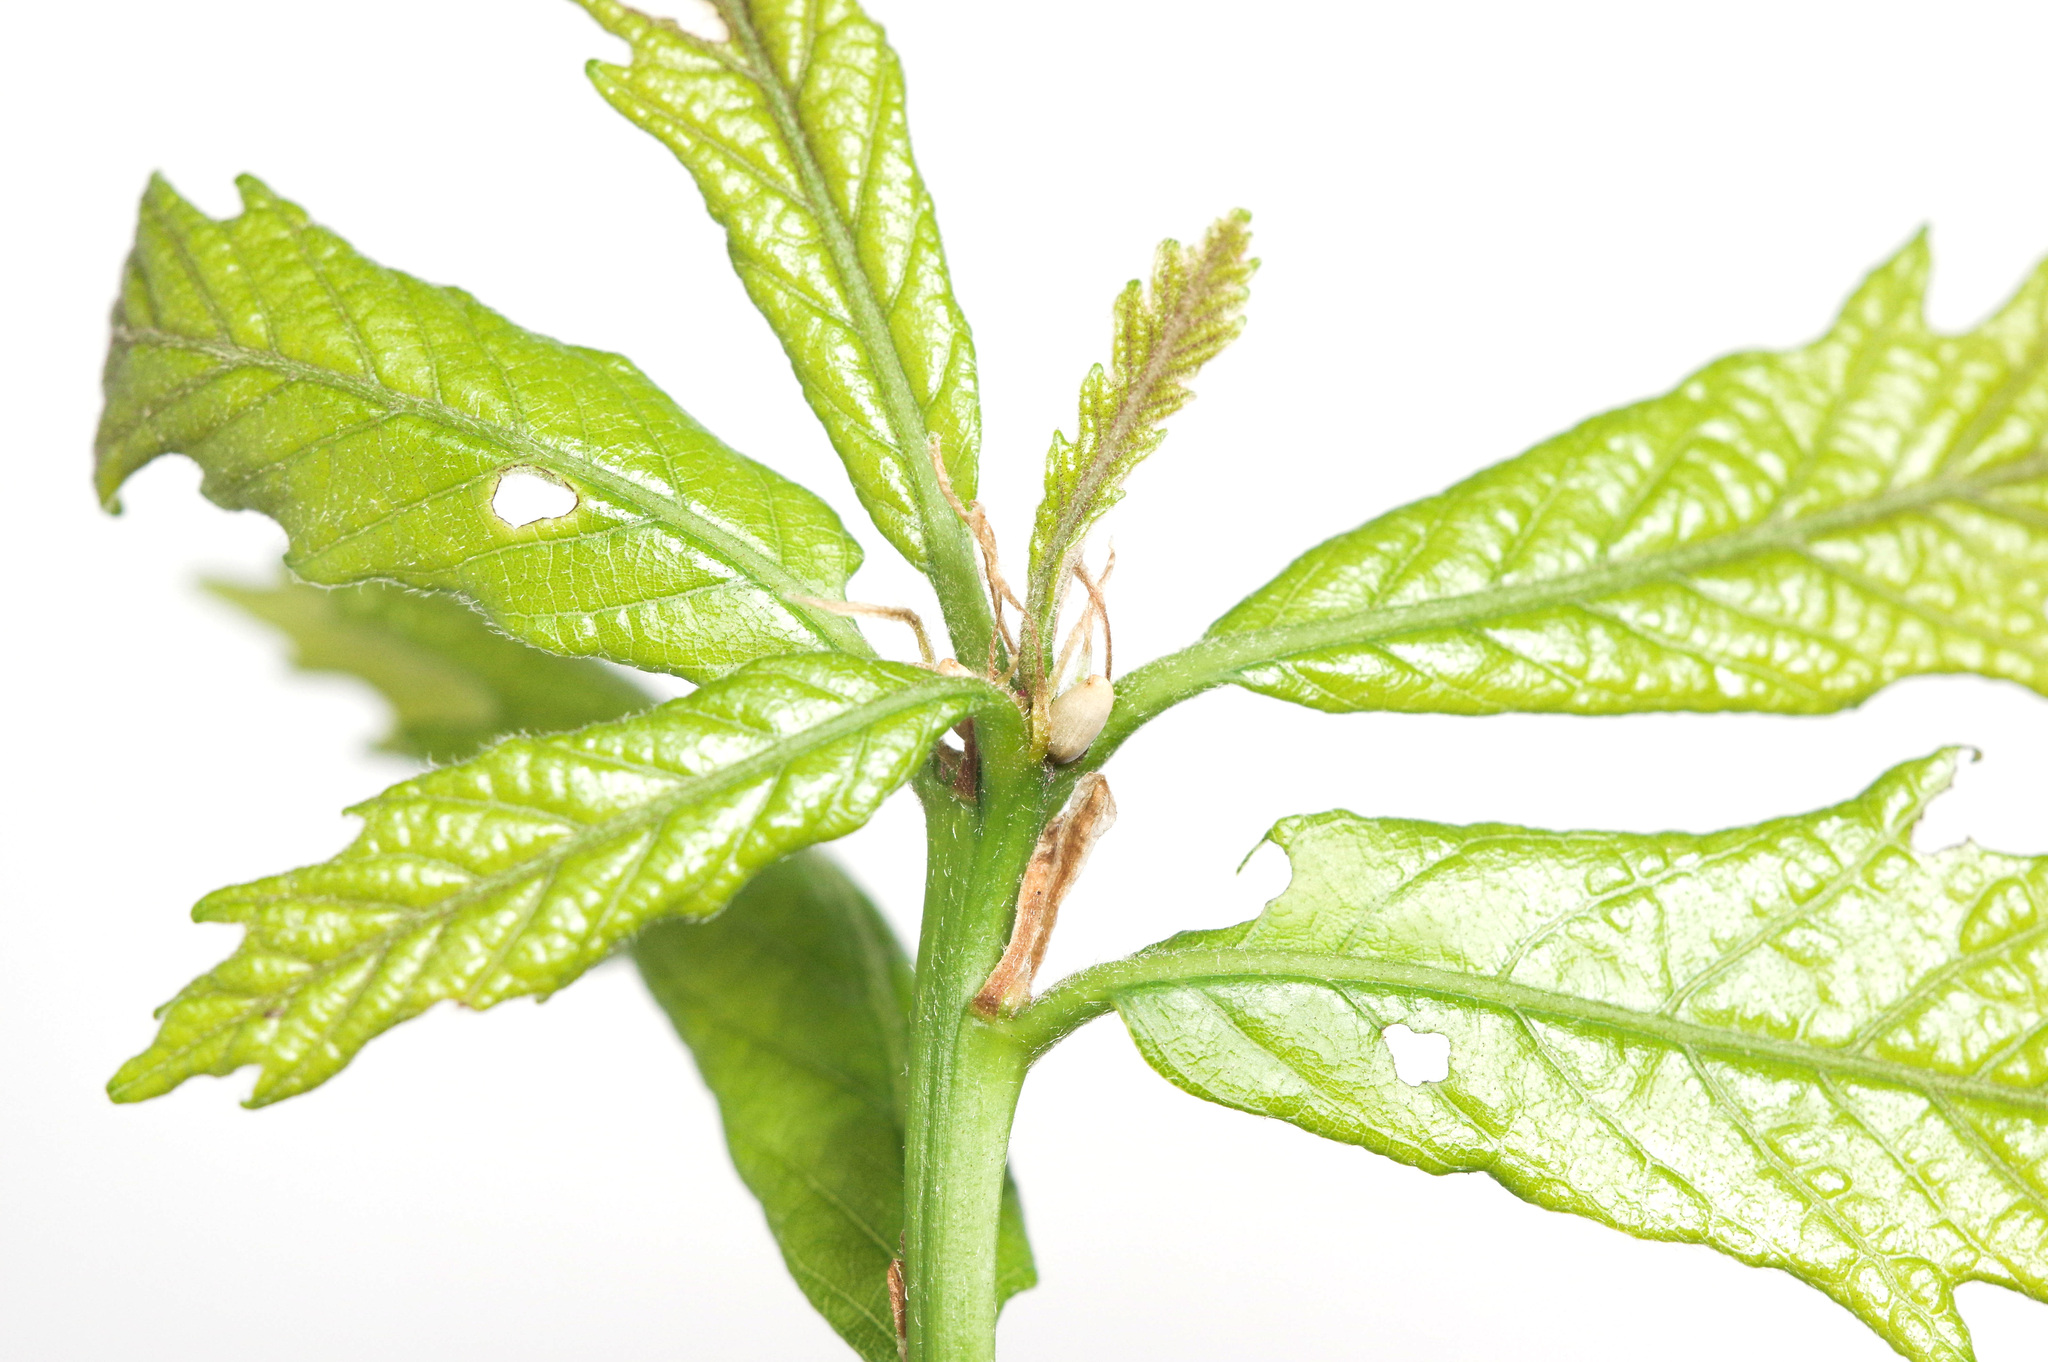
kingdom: Animalia
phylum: Arthropoda
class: Insecta
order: Hymenoptera
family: Cynipidae
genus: Disholcaspis
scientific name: Disholcaspis
